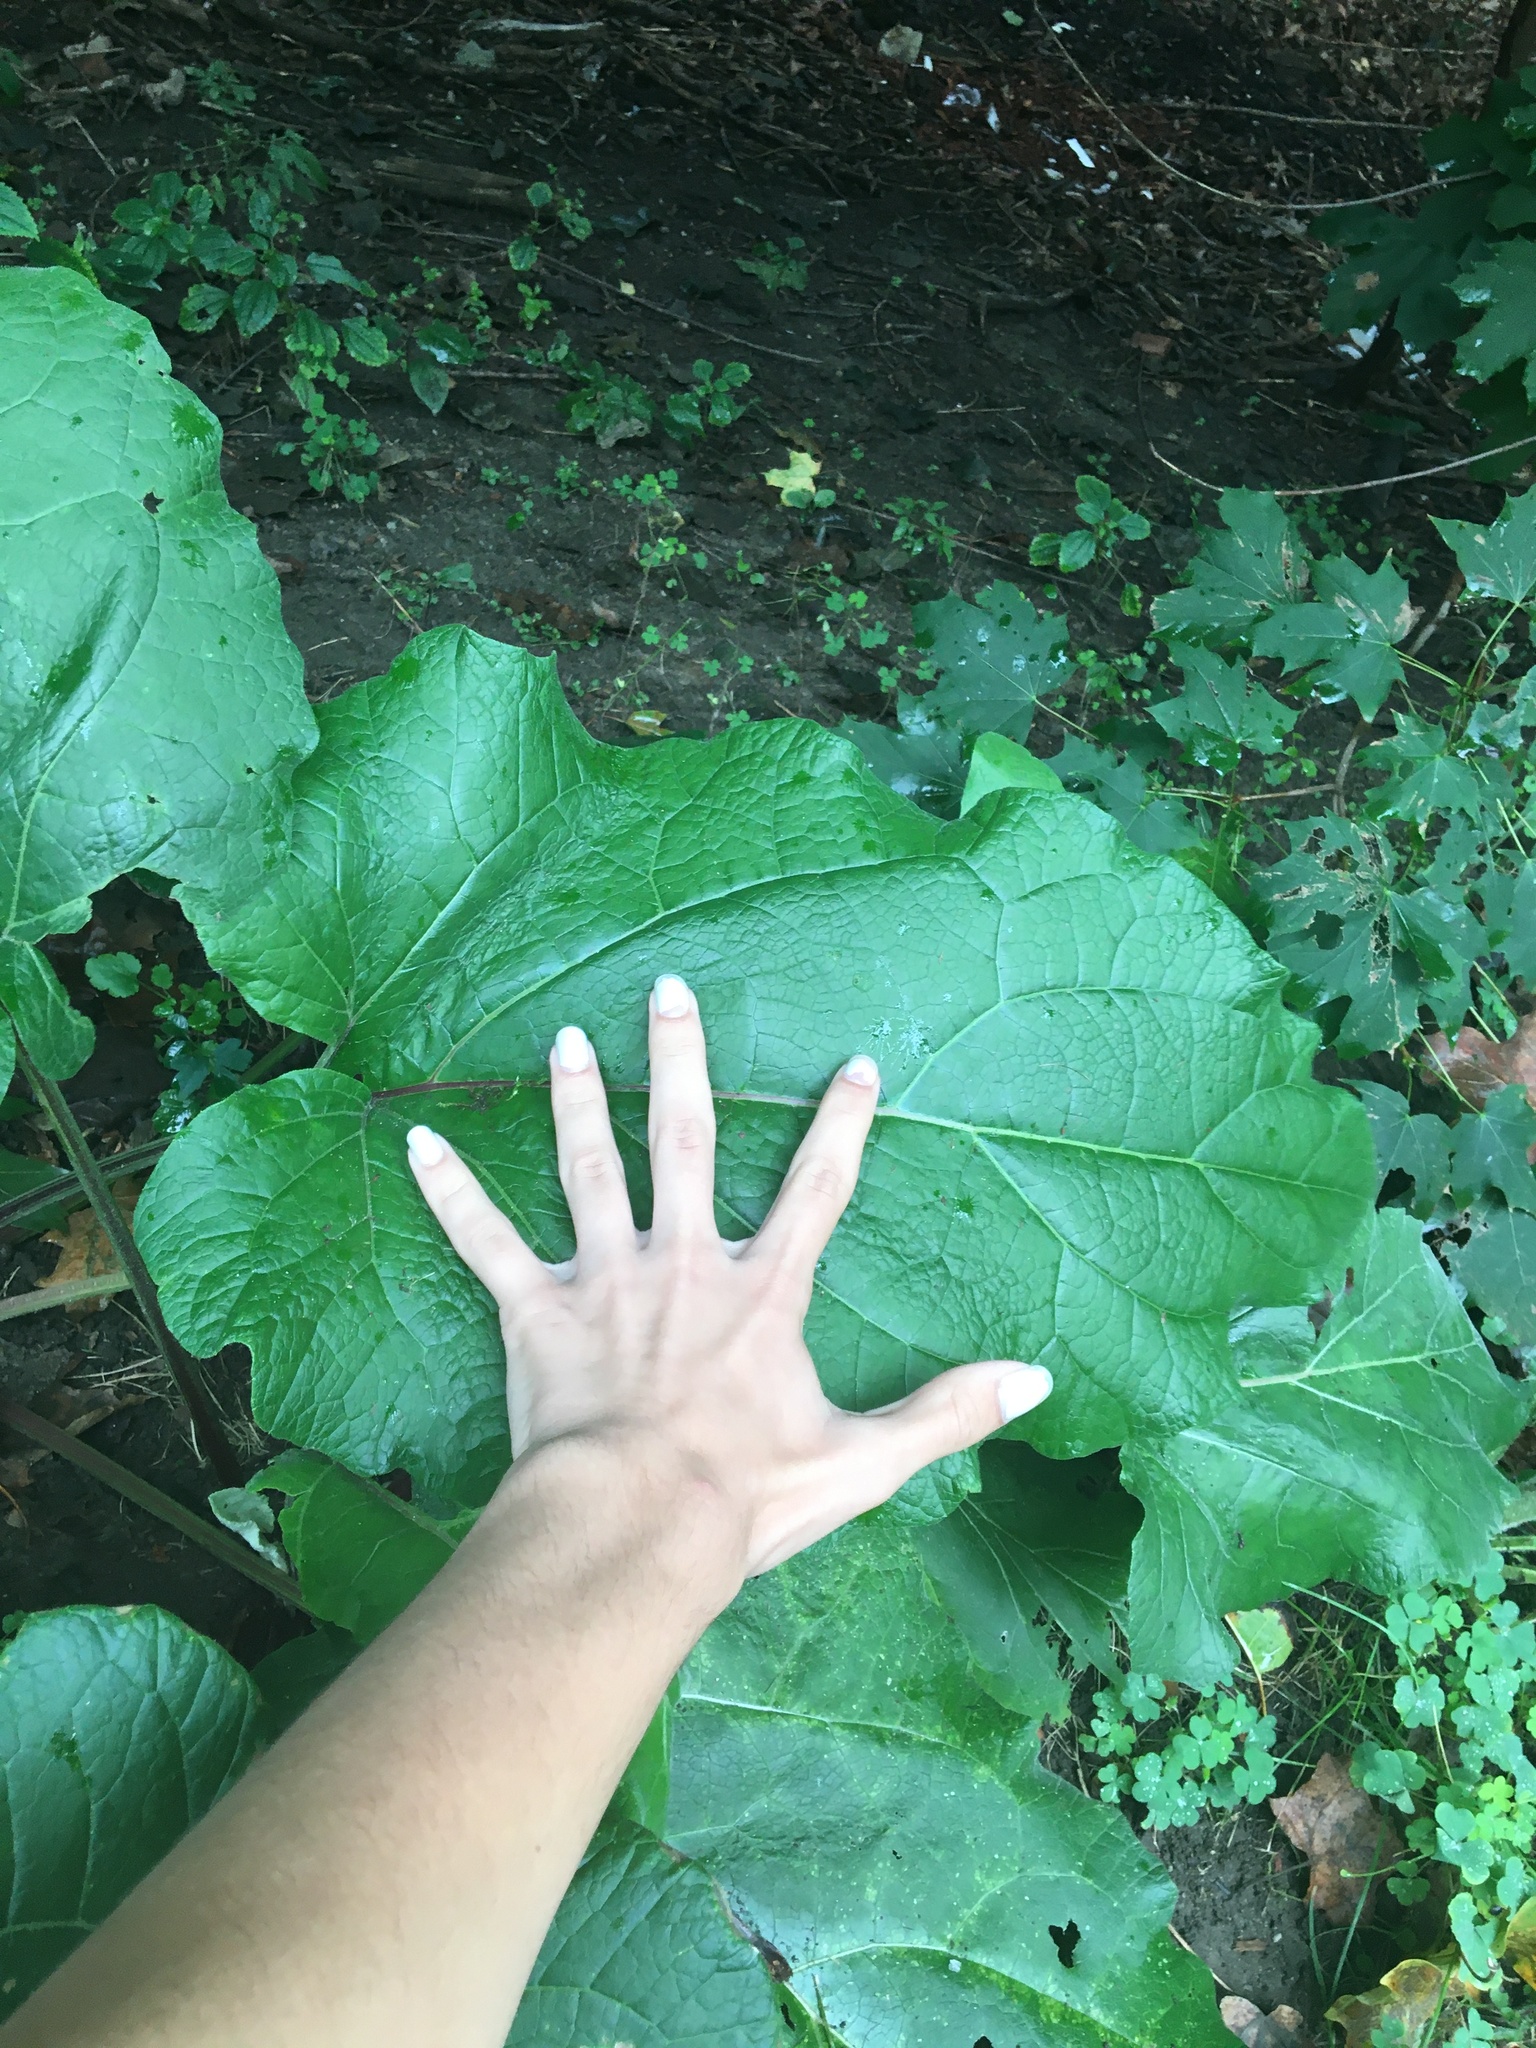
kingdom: Plantae
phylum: Tracheophyta
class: Magnoliopsida
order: Asterales
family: Asteraceae
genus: Arctium
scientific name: Arctium
